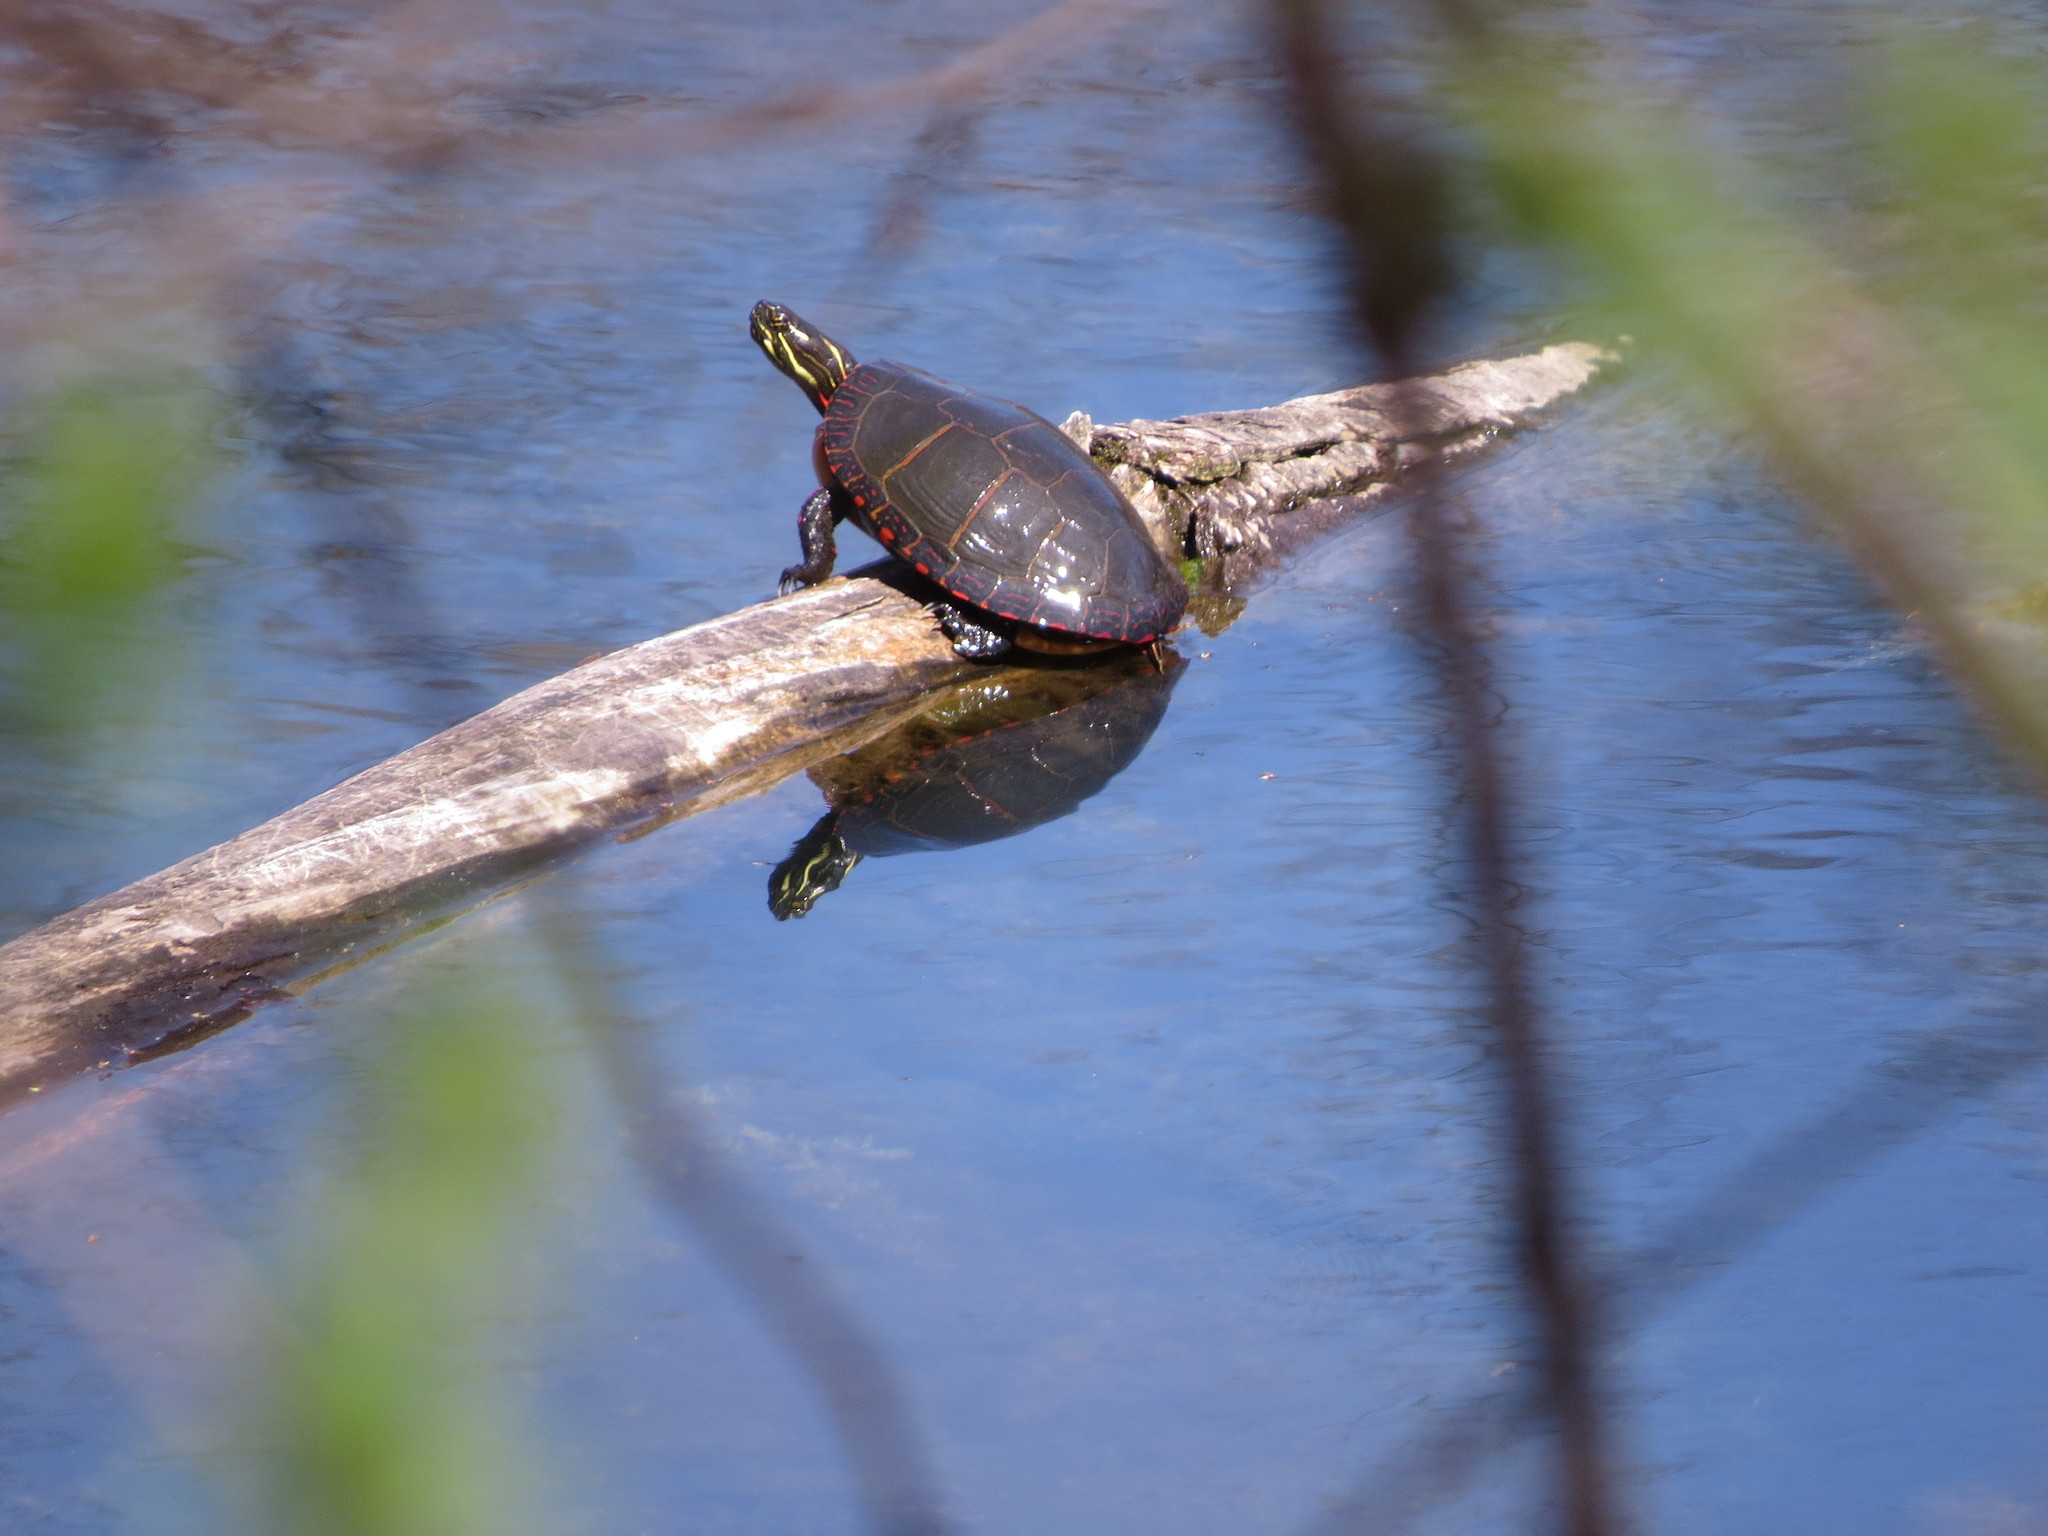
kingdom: Animalia
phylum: Chordata
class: Testudines
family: Emydidae
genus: Chrysemys
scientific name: Chrysemys picta
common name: Painted turtle
